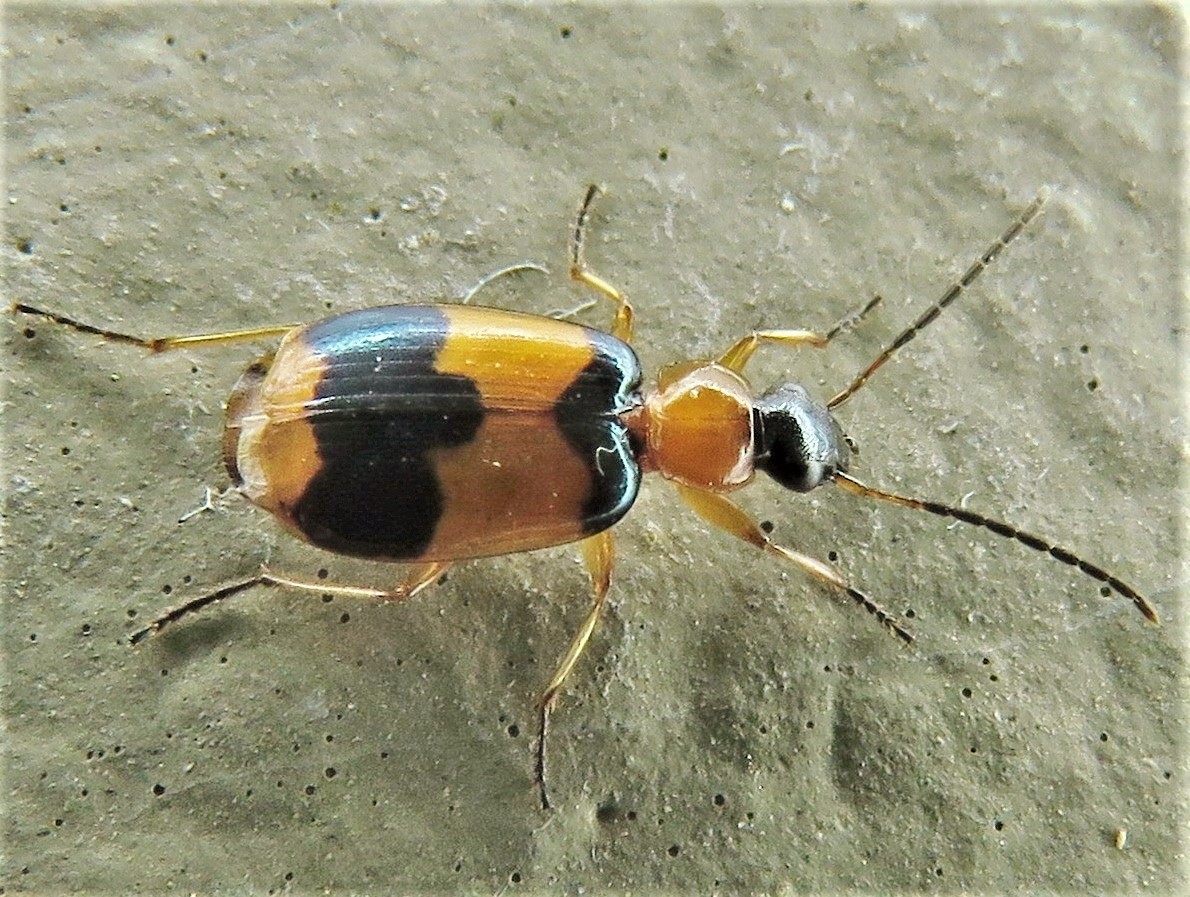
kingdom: Animalia
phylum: Arthropoda
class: Insecta
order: Coleoptera
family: Carabidae
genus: Lebia
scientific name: Lebia pulchella
